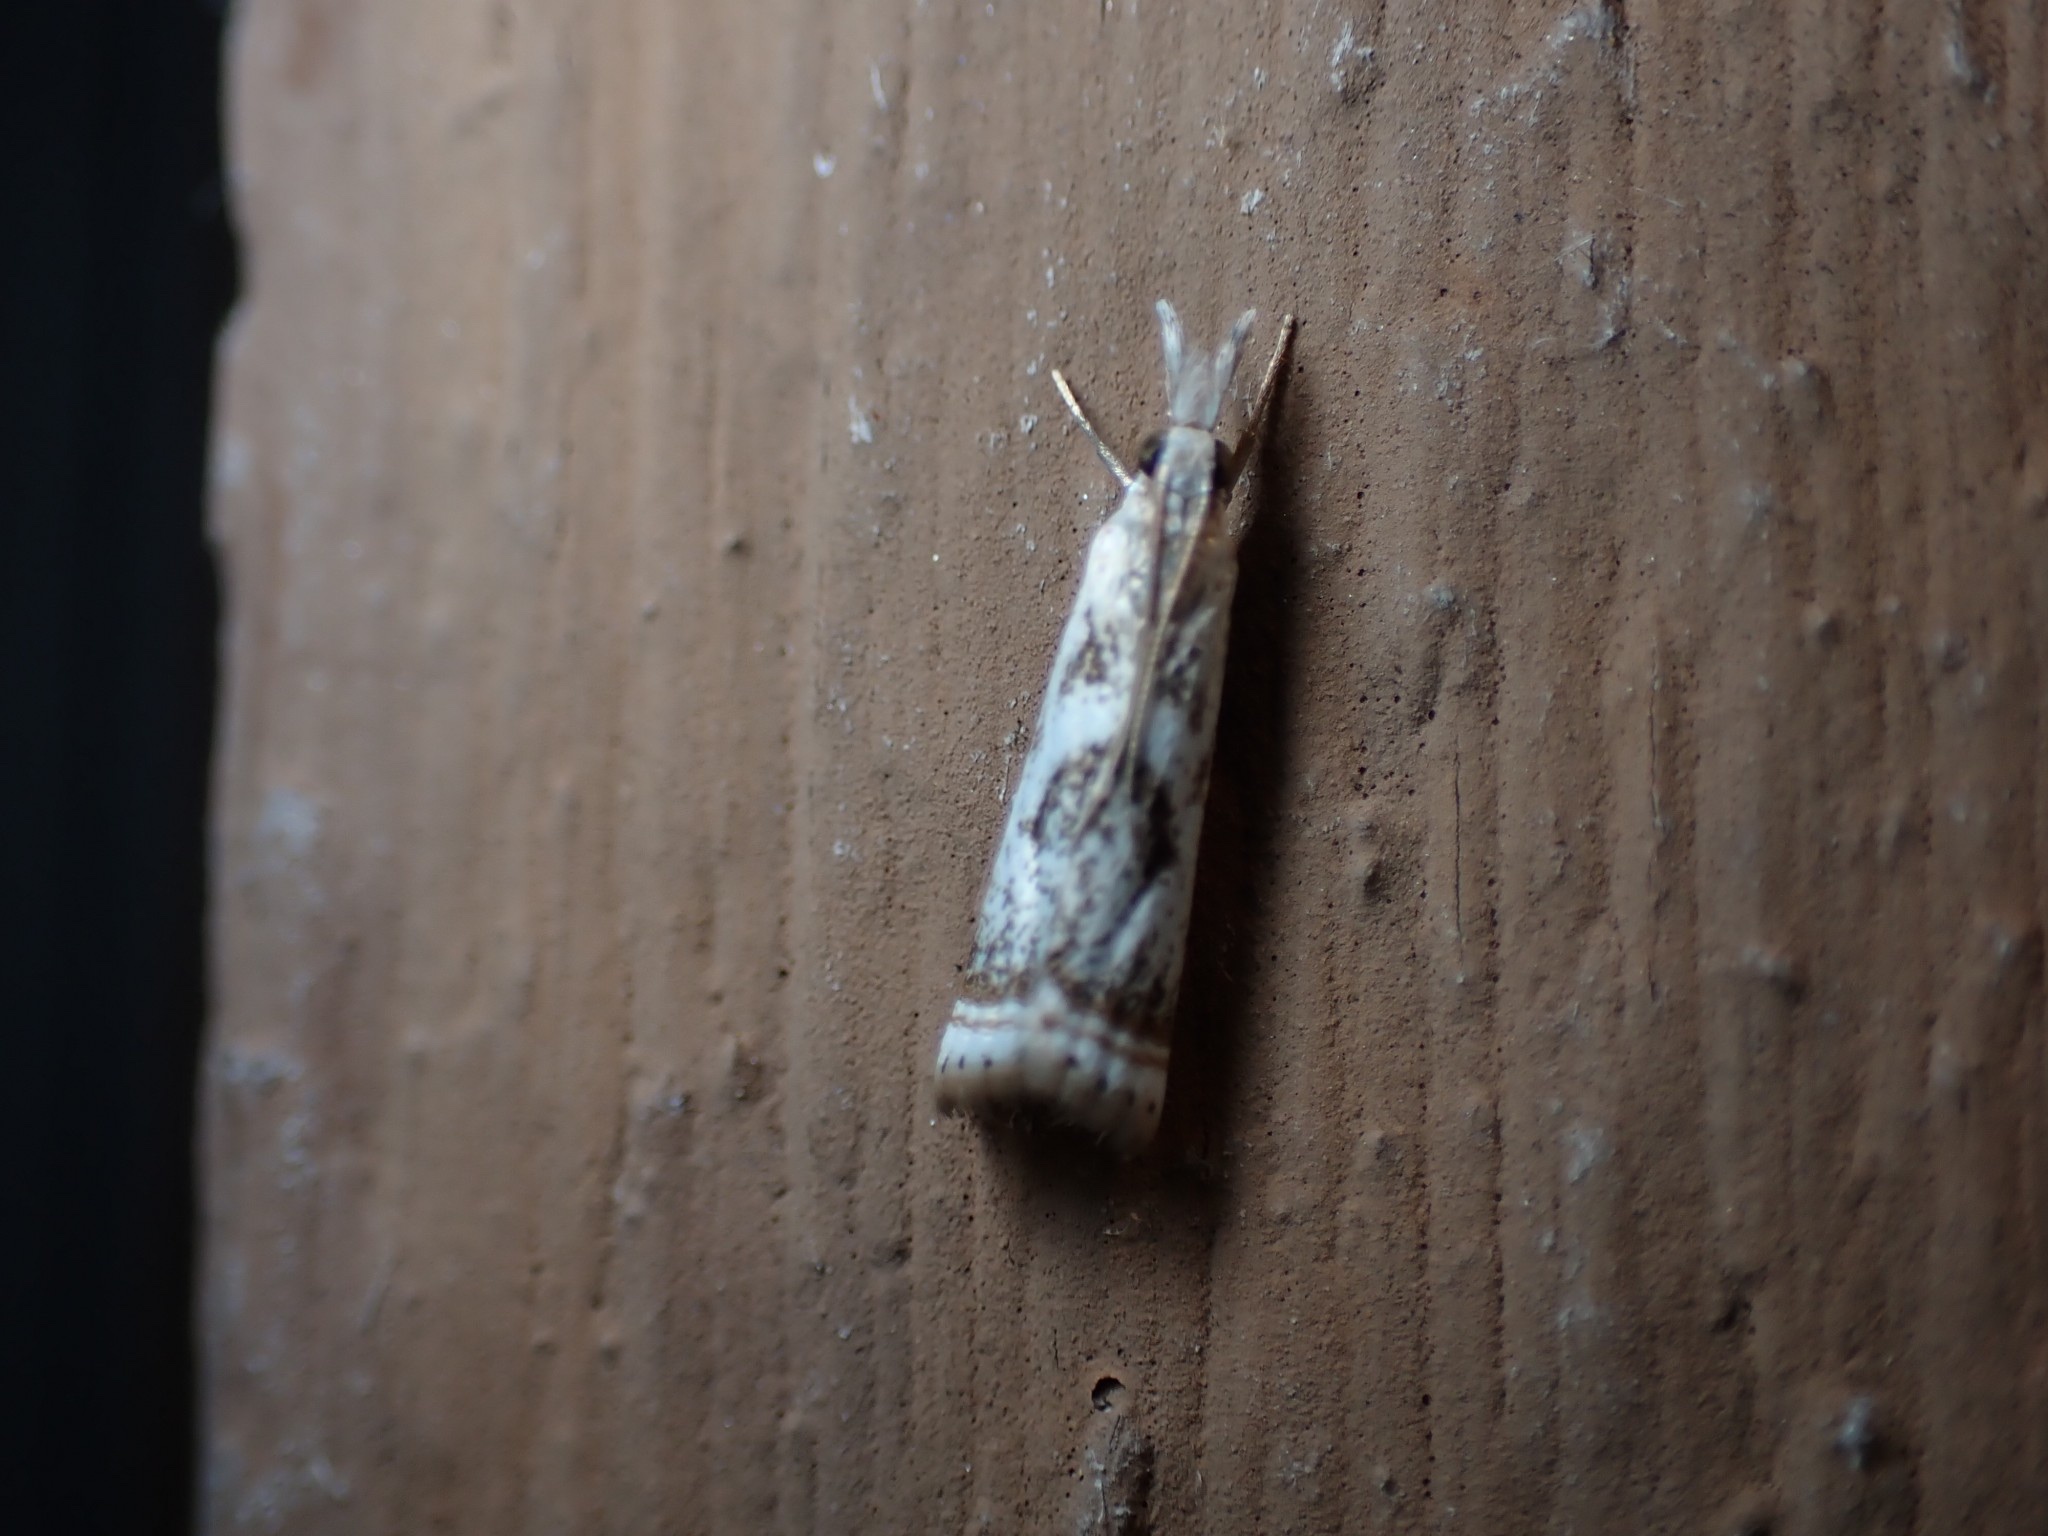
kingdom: Animalia
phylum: Arthropoda
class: Insecta
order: Lepidoptera
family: Crambidae
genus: Microcrambus
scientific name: Microcrambus elegans
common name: Elegant grass-veneer
